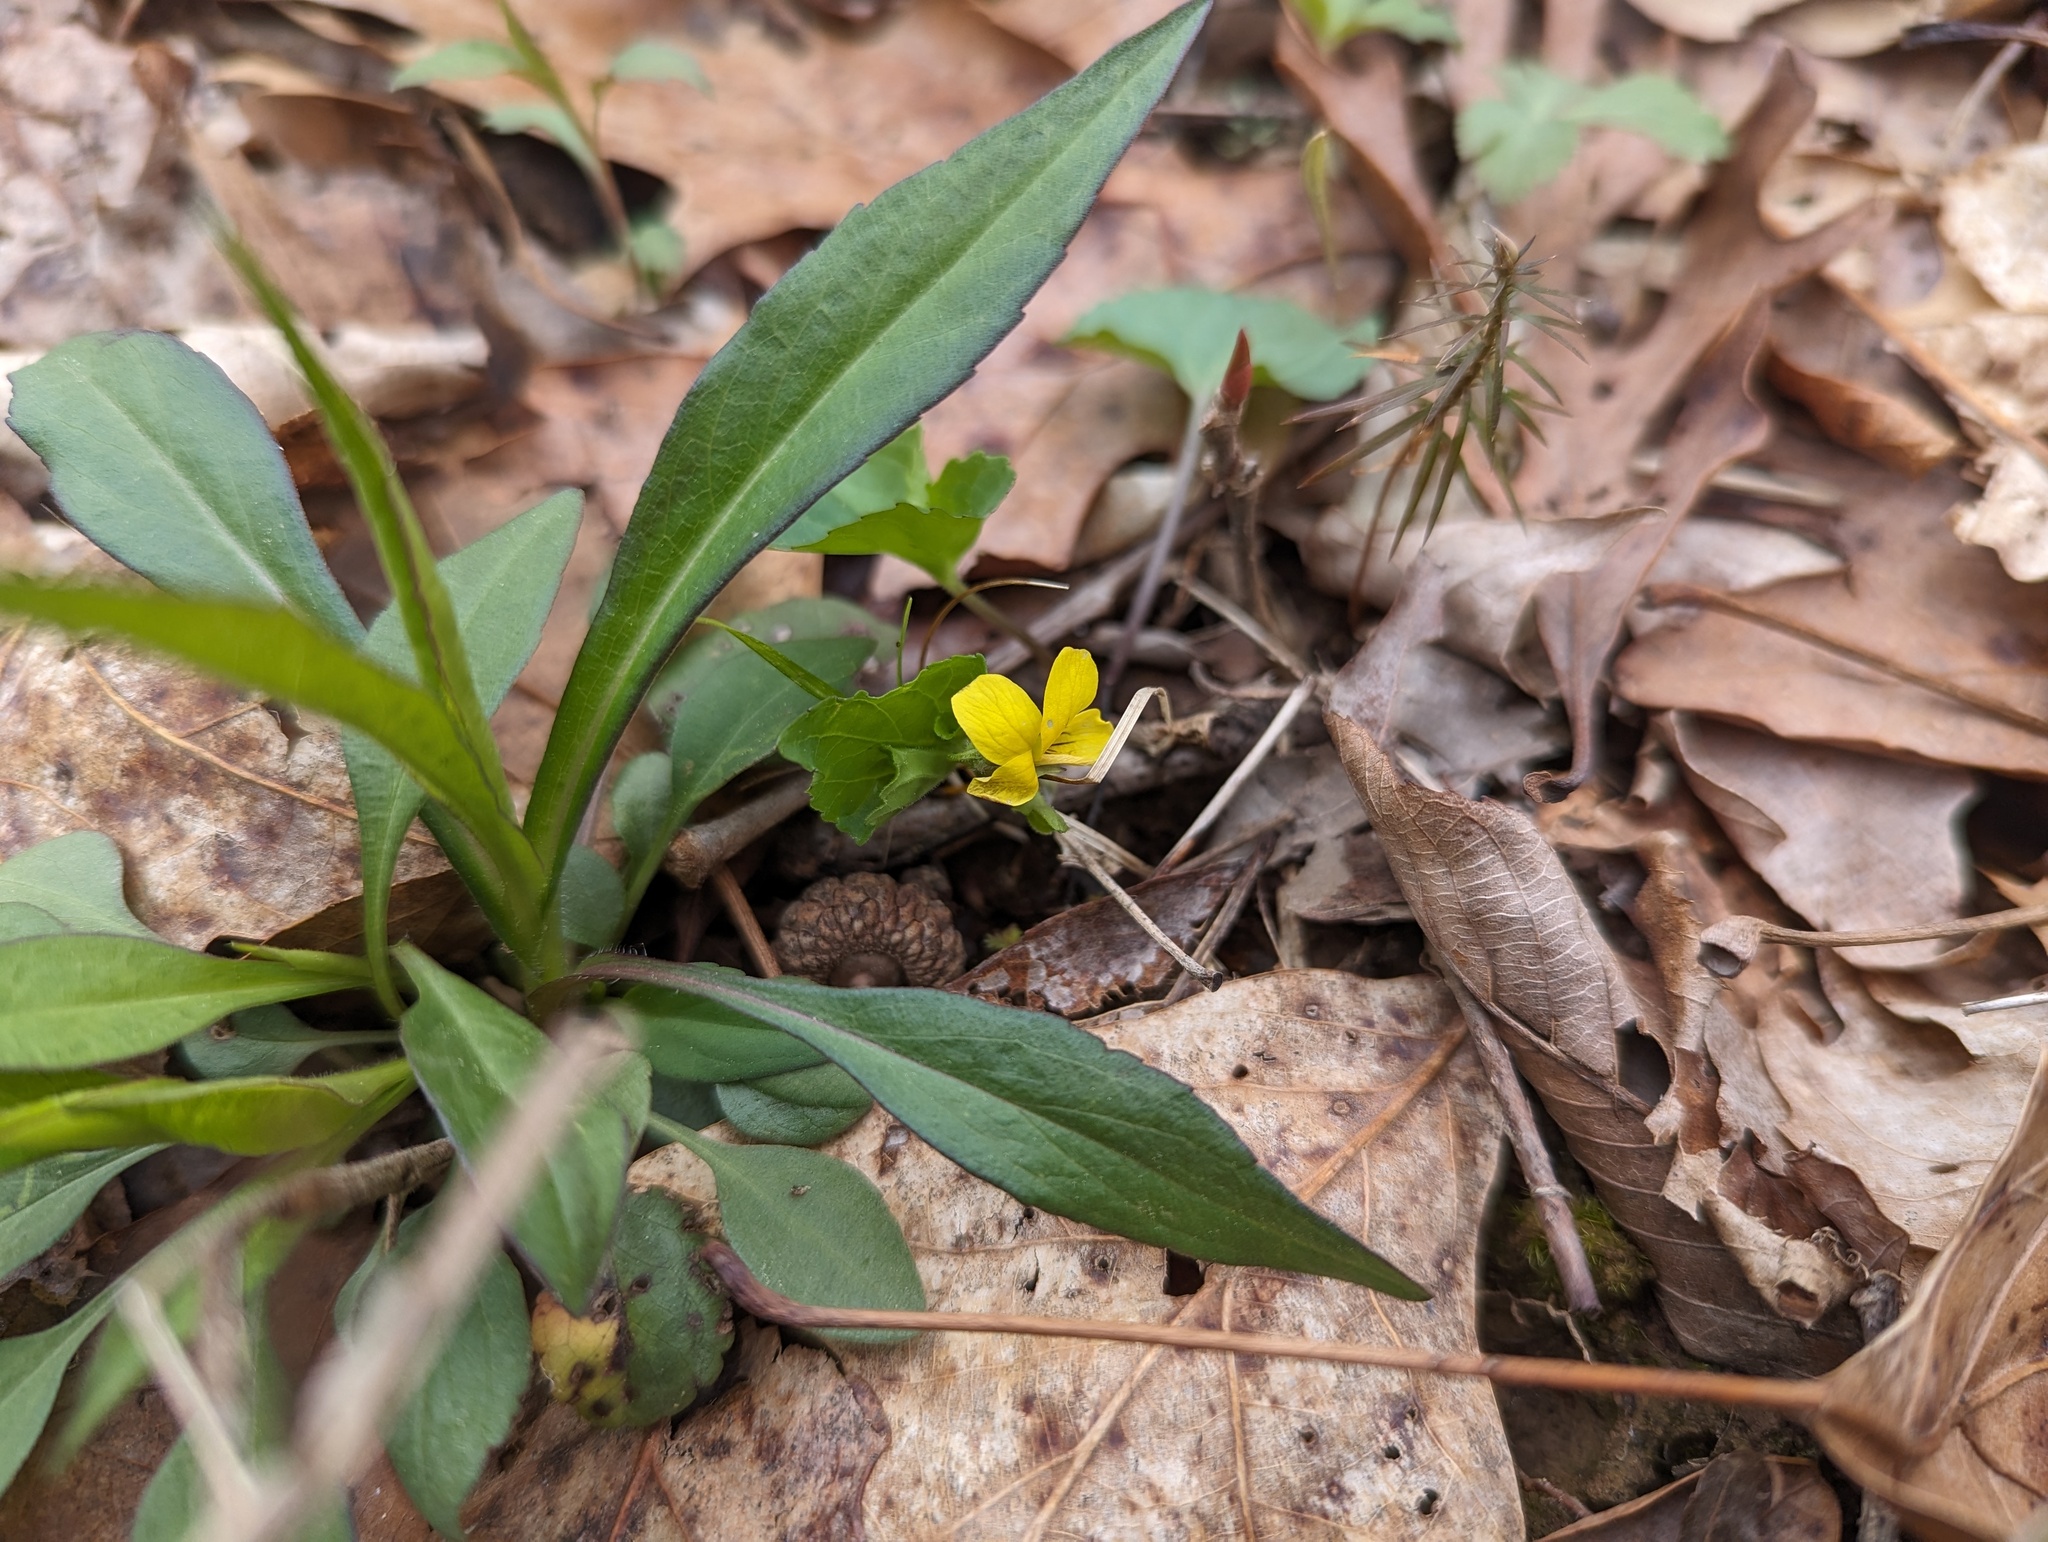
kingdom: Plantae
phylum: Tracheophyta
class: Magnoliopsida
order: Malpighiales
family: Violaceae
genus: Viola
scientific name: Viola eriocarpa
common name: Smooth yellow violet
